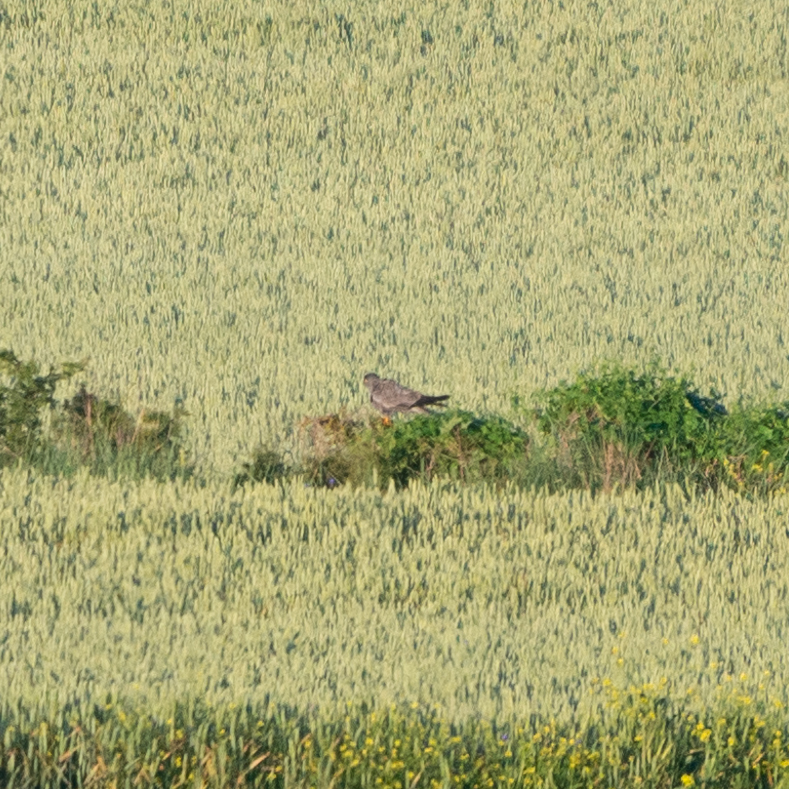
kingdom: Animalia
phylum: Chordata
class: Aves
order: Accipitriformes
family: Accipitridae
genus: Circus
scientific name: Circus pygargus
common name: Montagu's harrier
